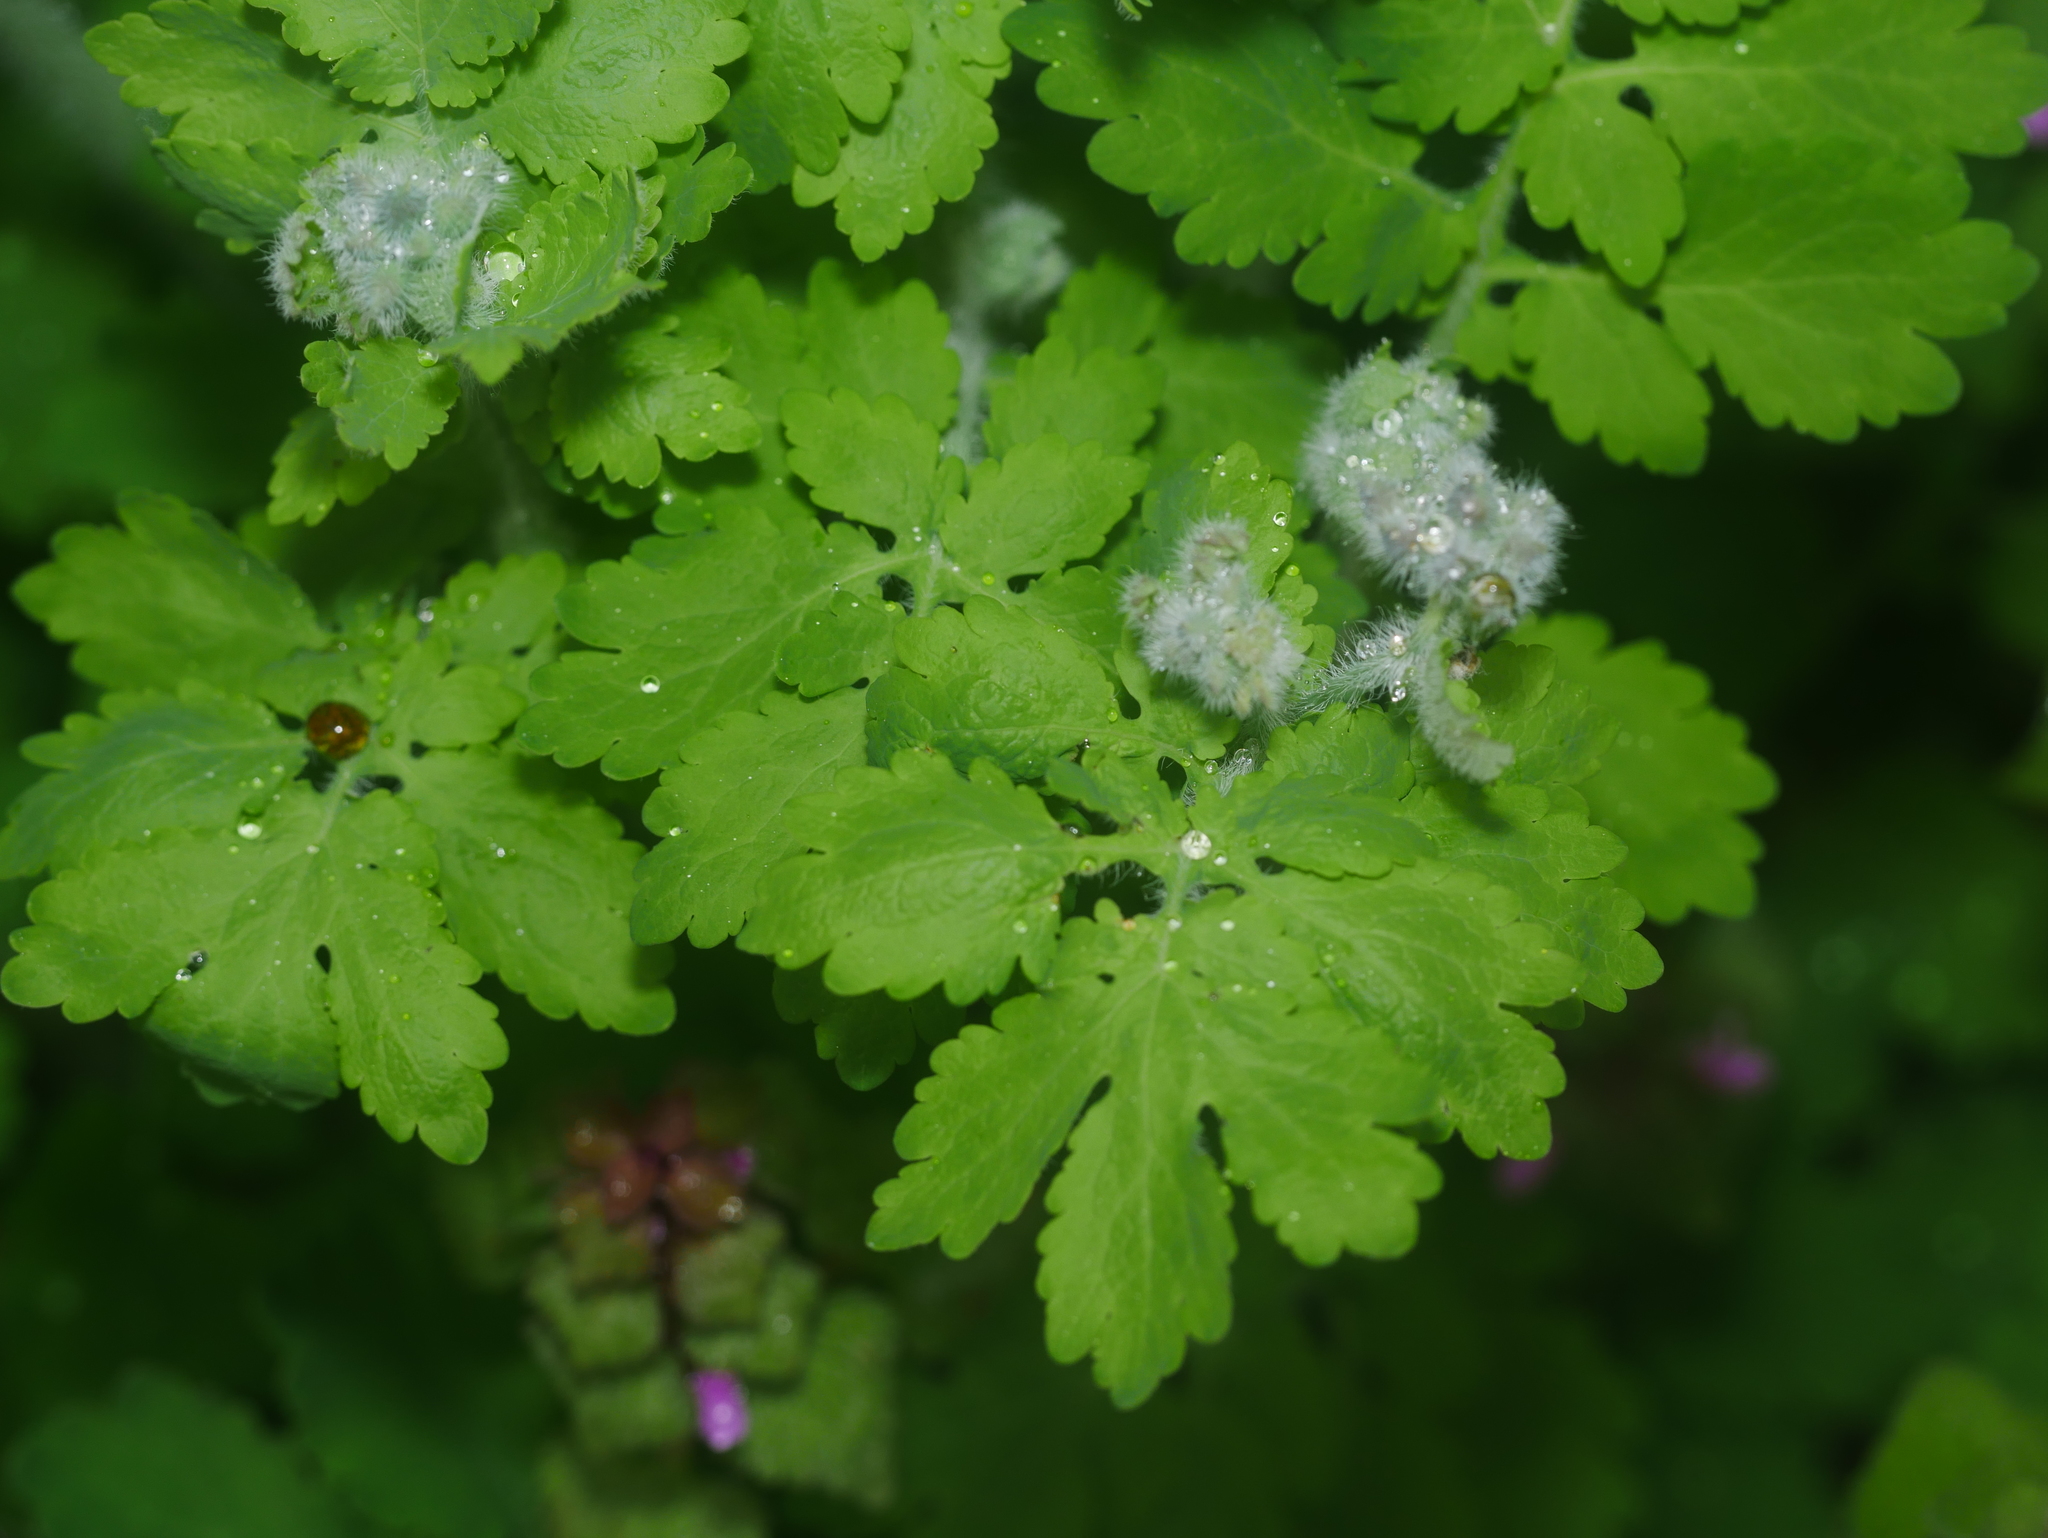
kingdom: Plantae
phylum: Tracheophyta
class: Magnoliopsida
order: Ranunculales
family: Papaveraceae
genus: Chelidonium
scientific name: Chelidonium majus
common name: Greater celandine
